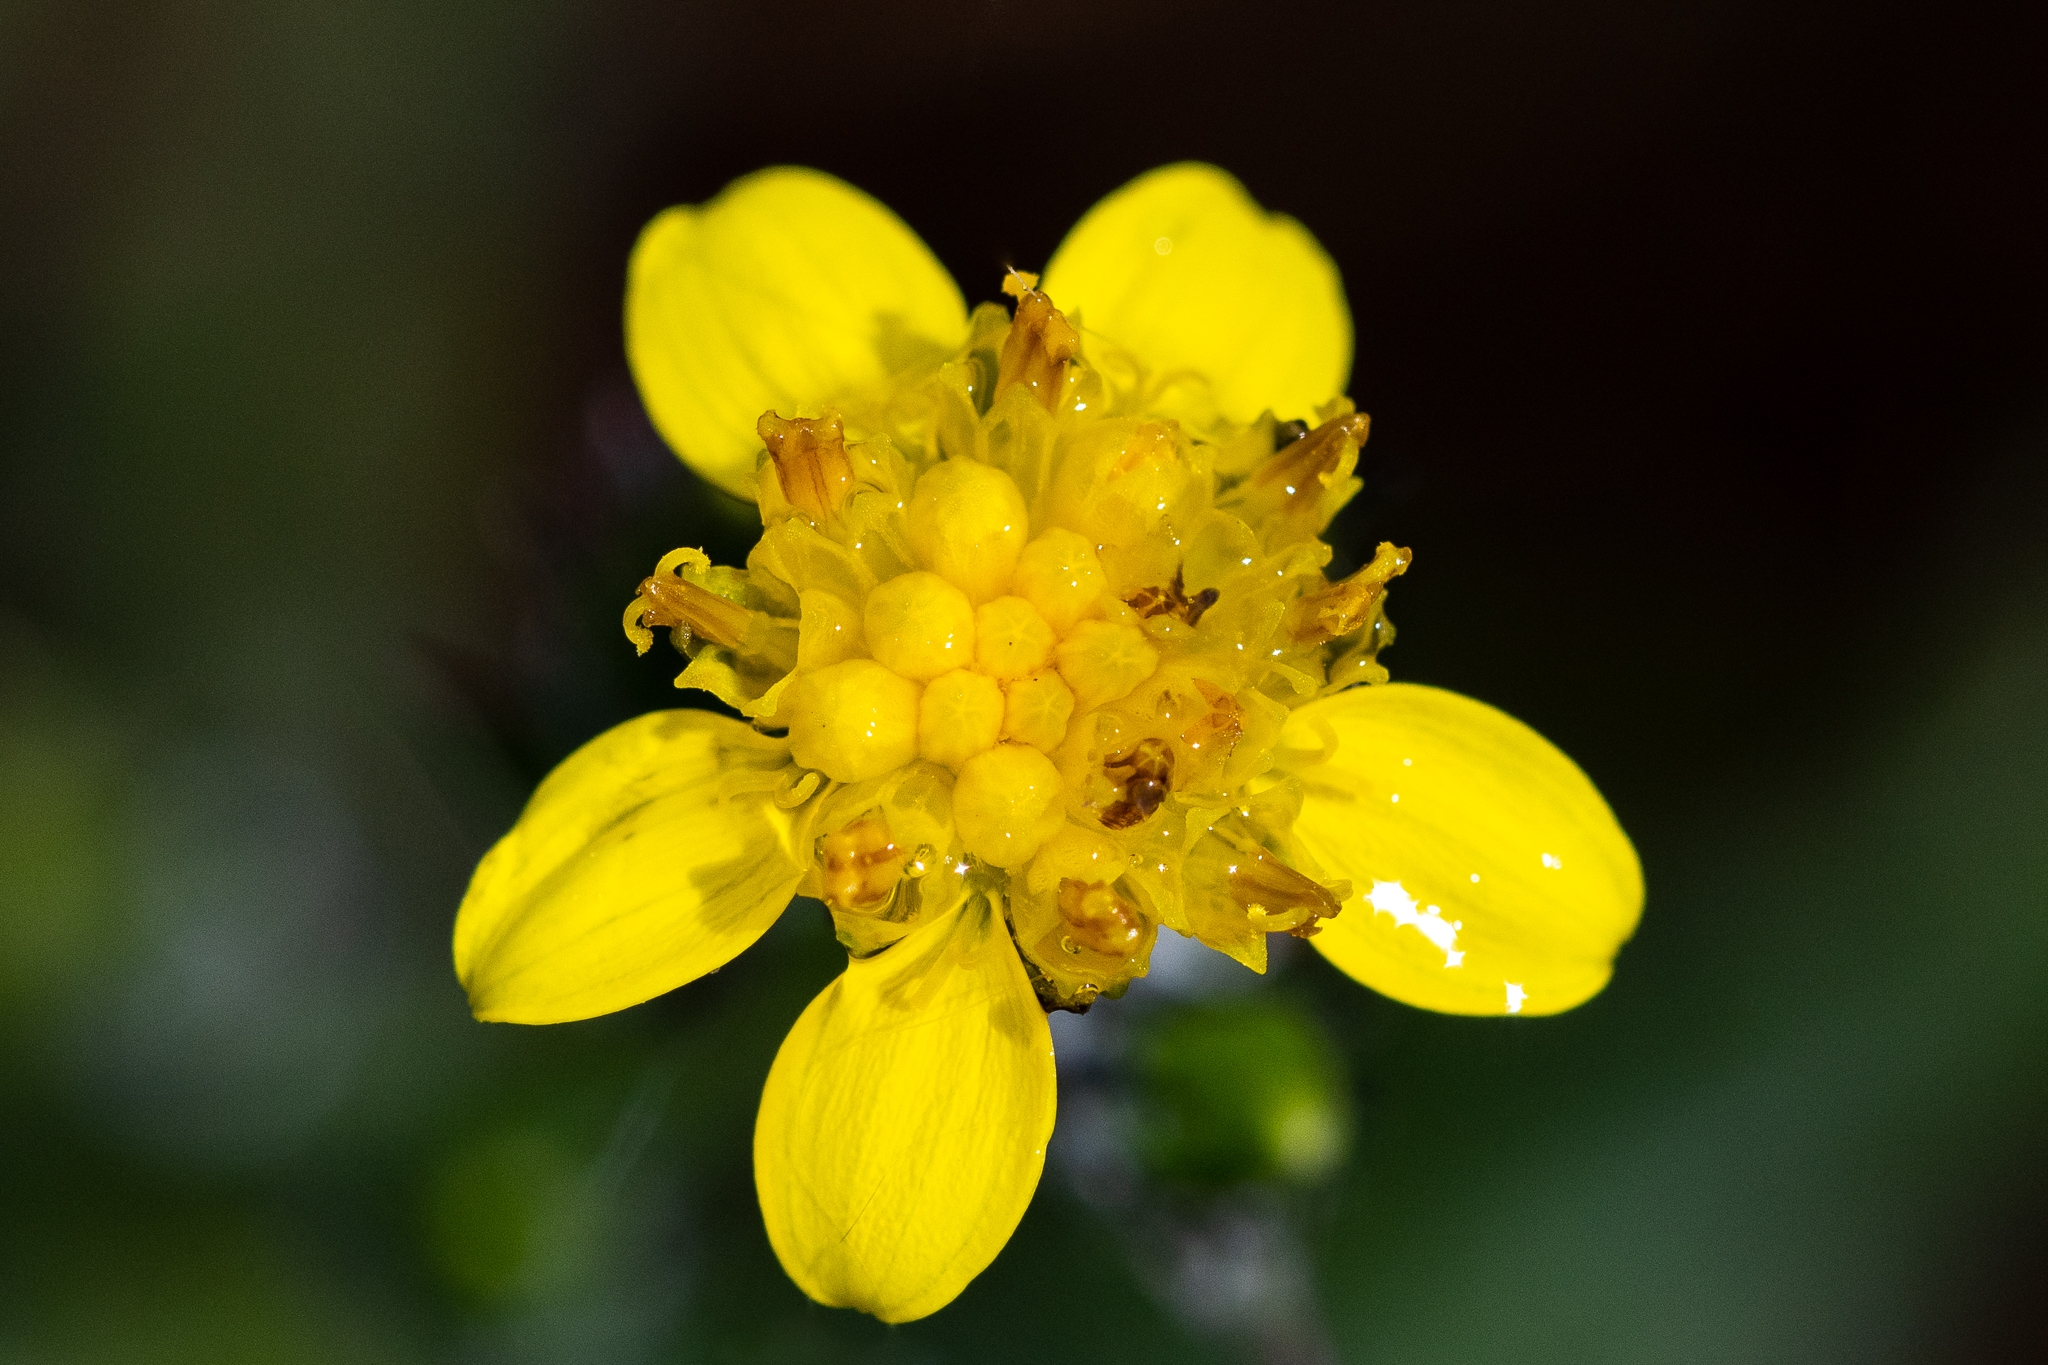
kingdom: Plantae
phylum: Tracheophyta
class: Magnoliopsida
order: Asterales
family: Asteraceae
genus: Senecio
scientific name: Senecio pubigerus
